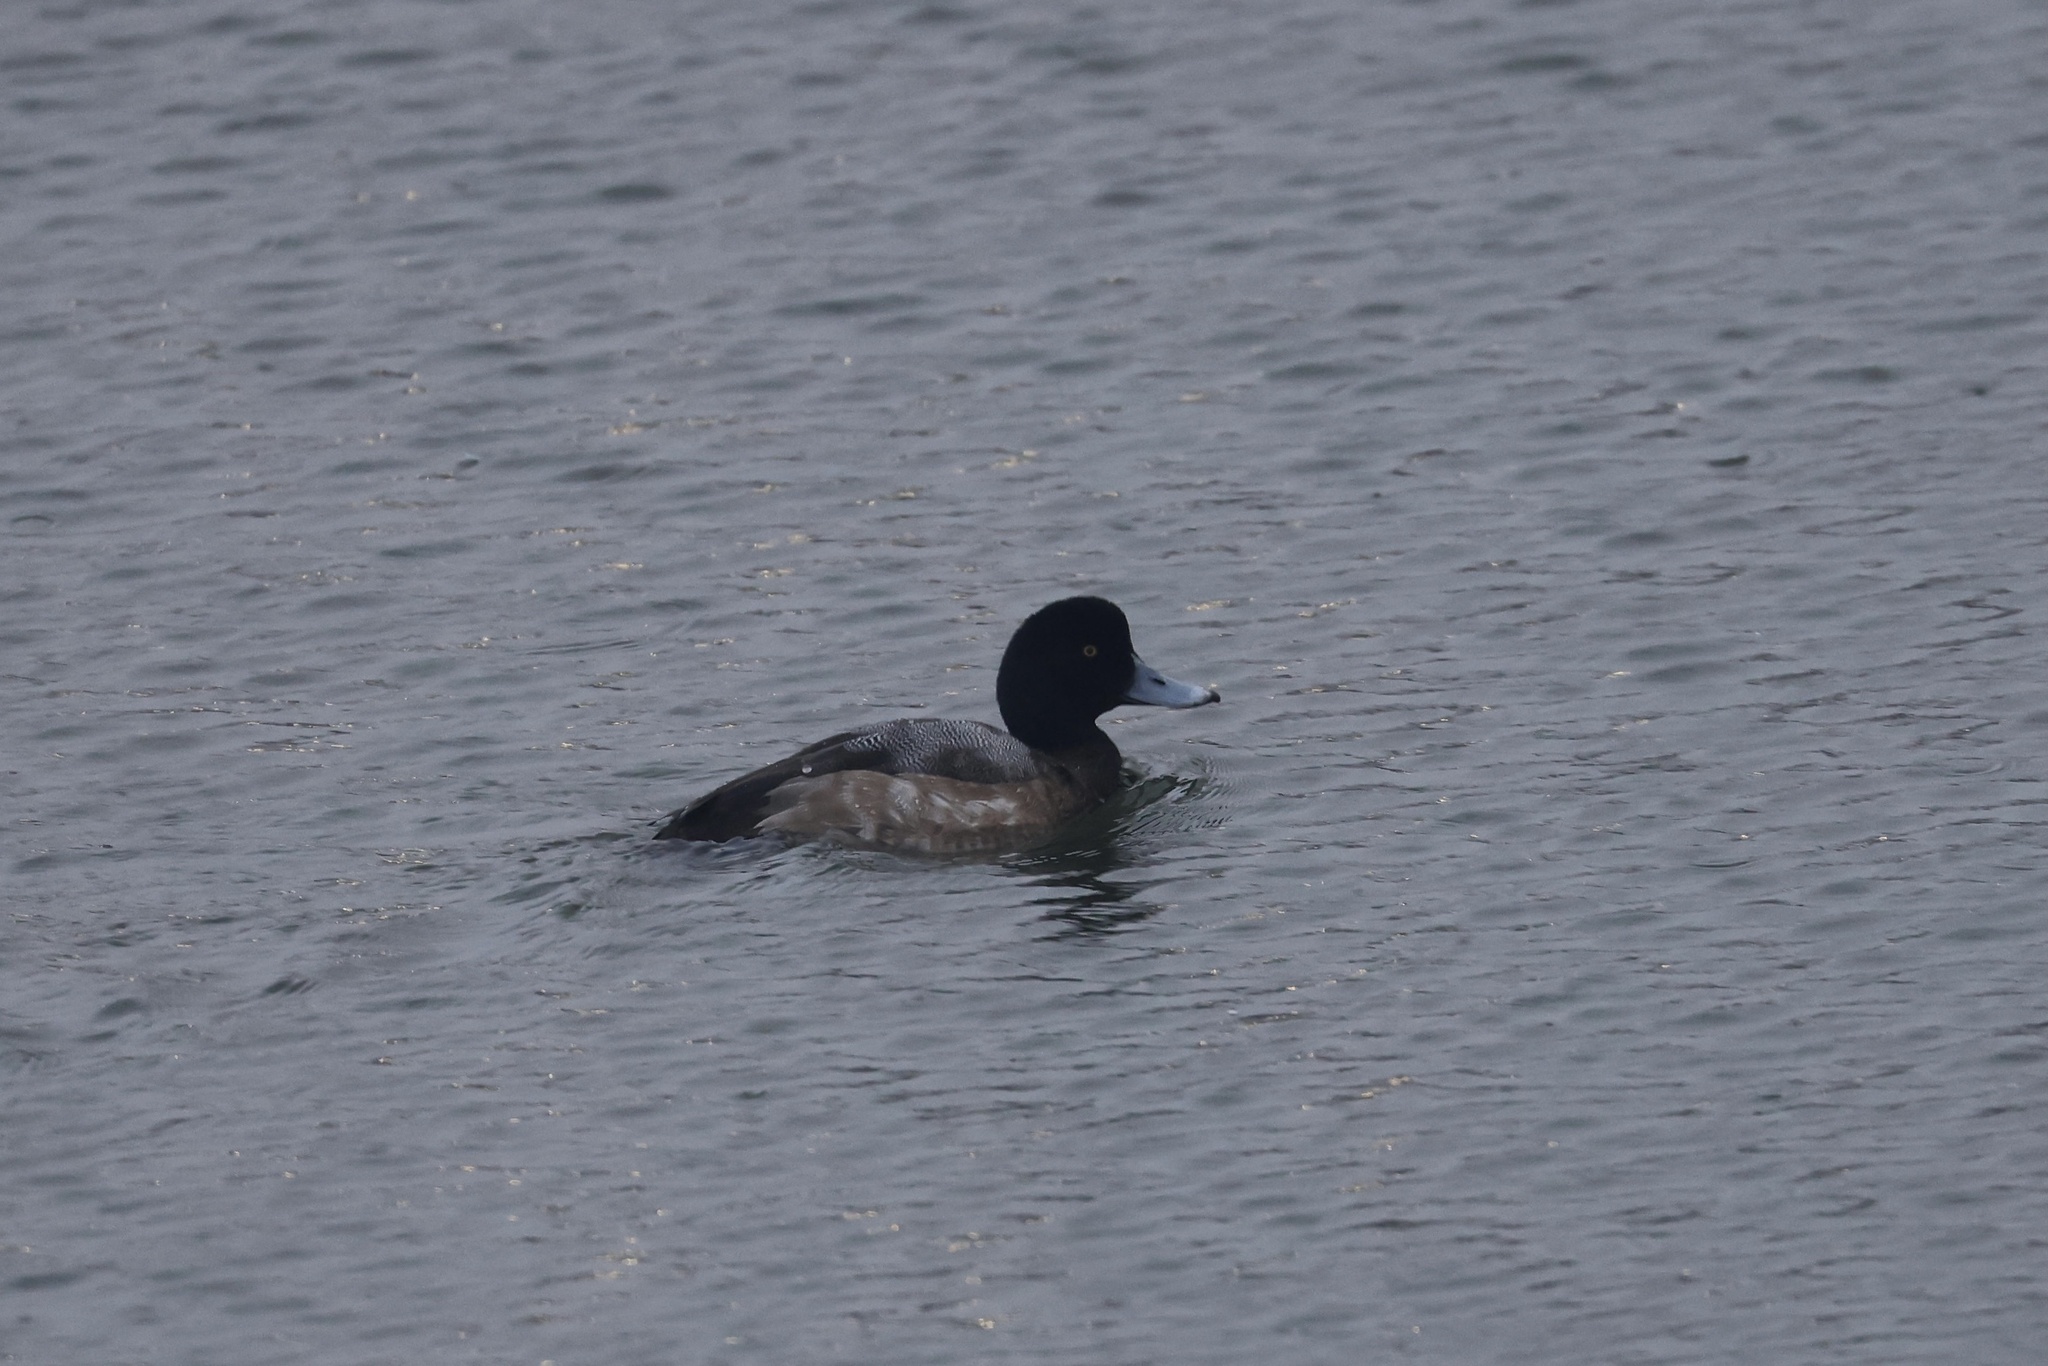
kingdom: Animalia
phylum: Chordata
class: Aves
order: Anseriformes
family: Anatidae
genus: Aythya
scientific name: Aythya marila
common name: Greater scaup
